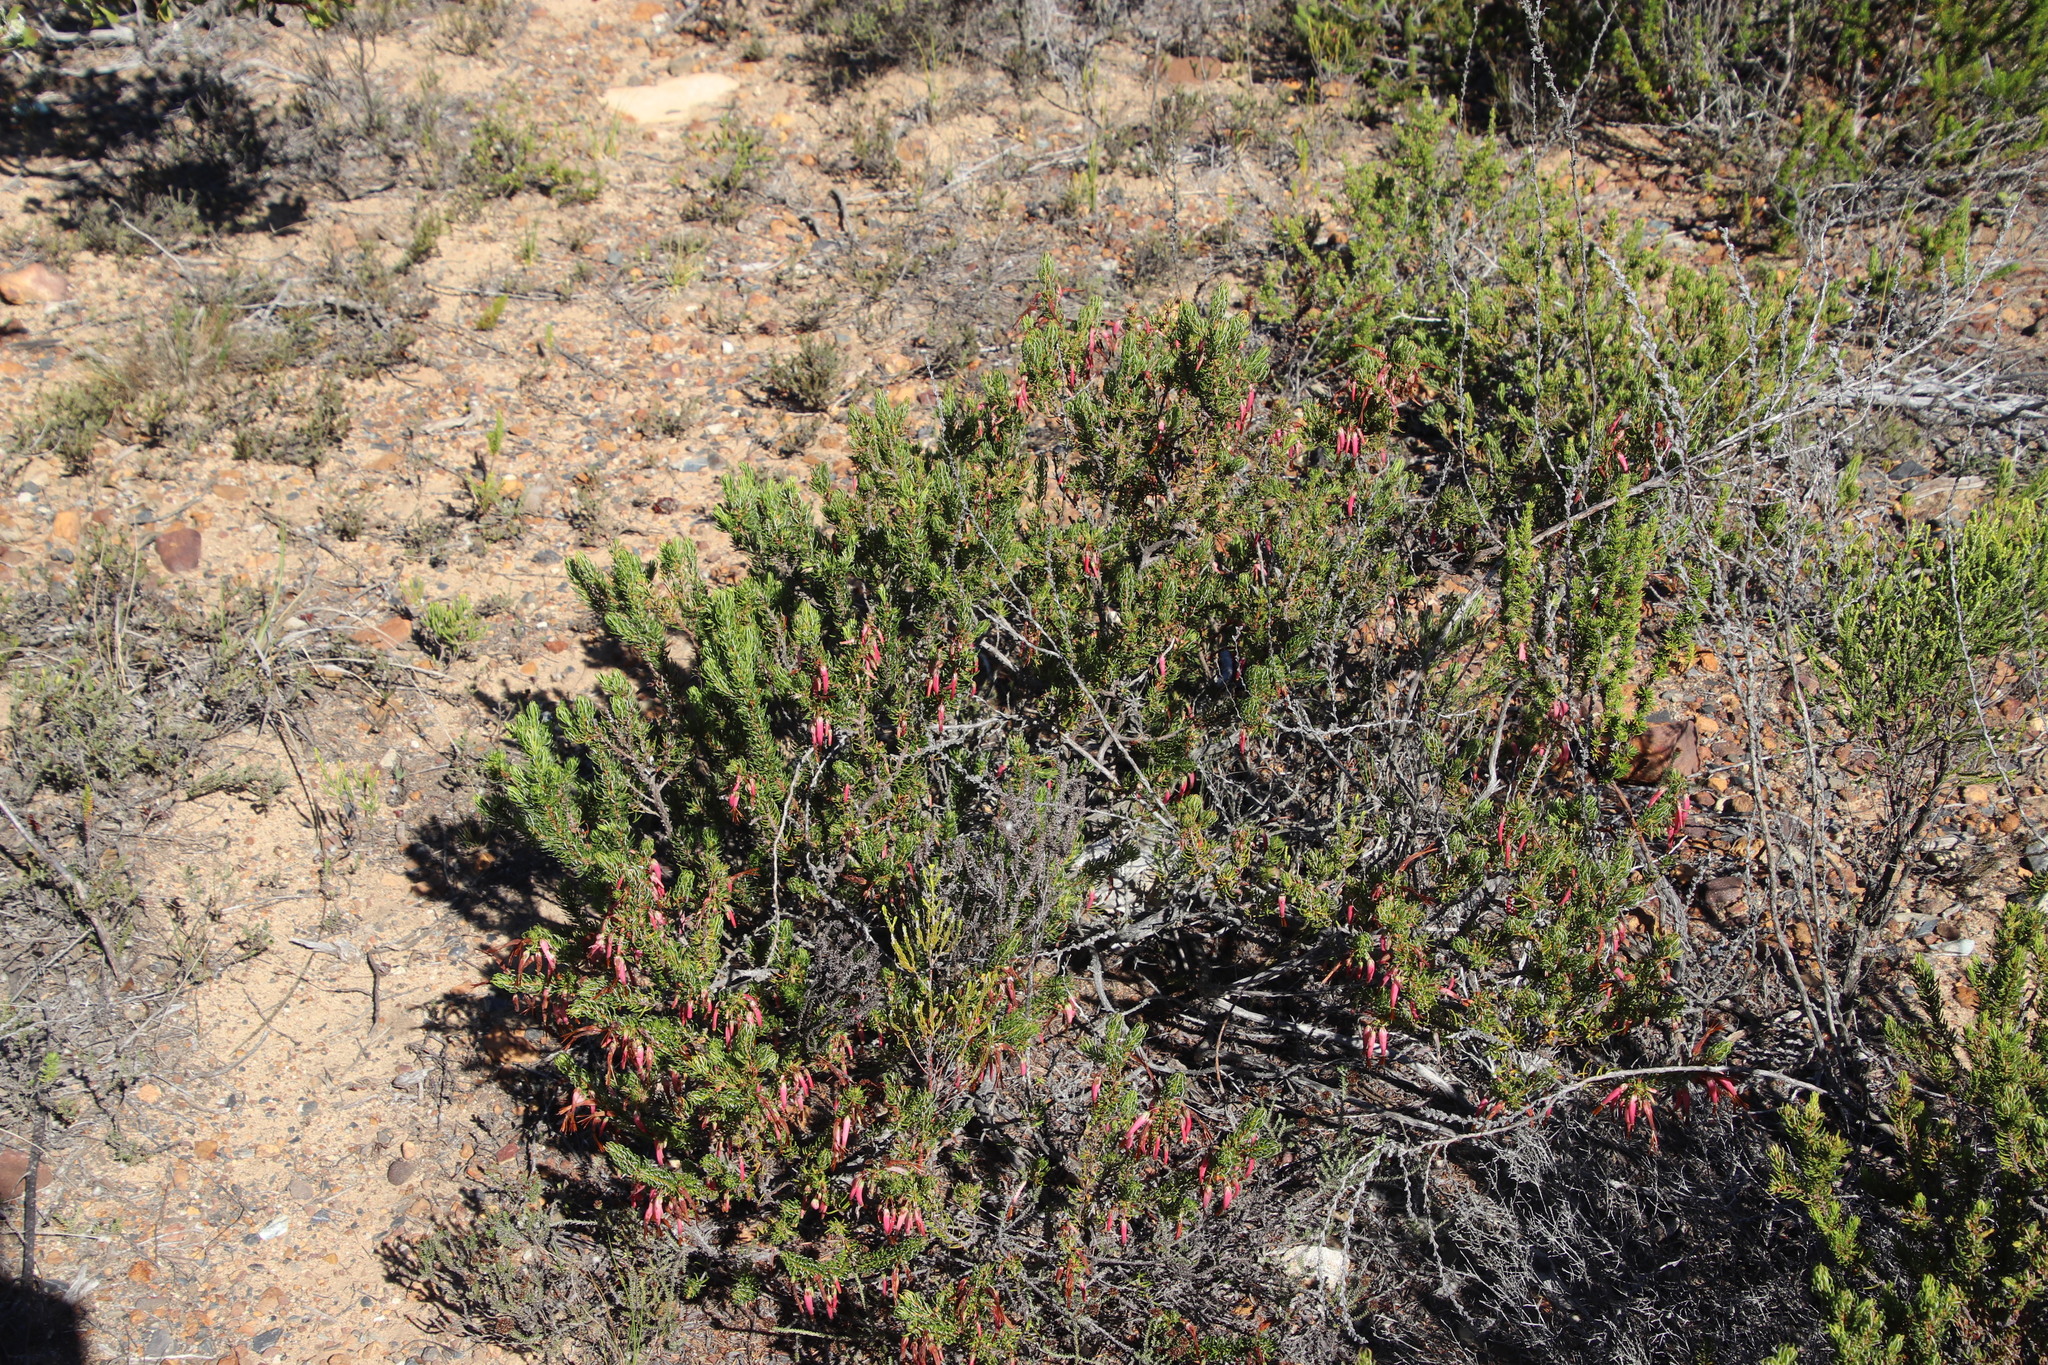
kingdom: Plantae
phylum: Tracheophyta
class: Magnoliopsida
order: Ericales
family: Ericaceae
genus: Erica
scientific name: Erica plukenetii
